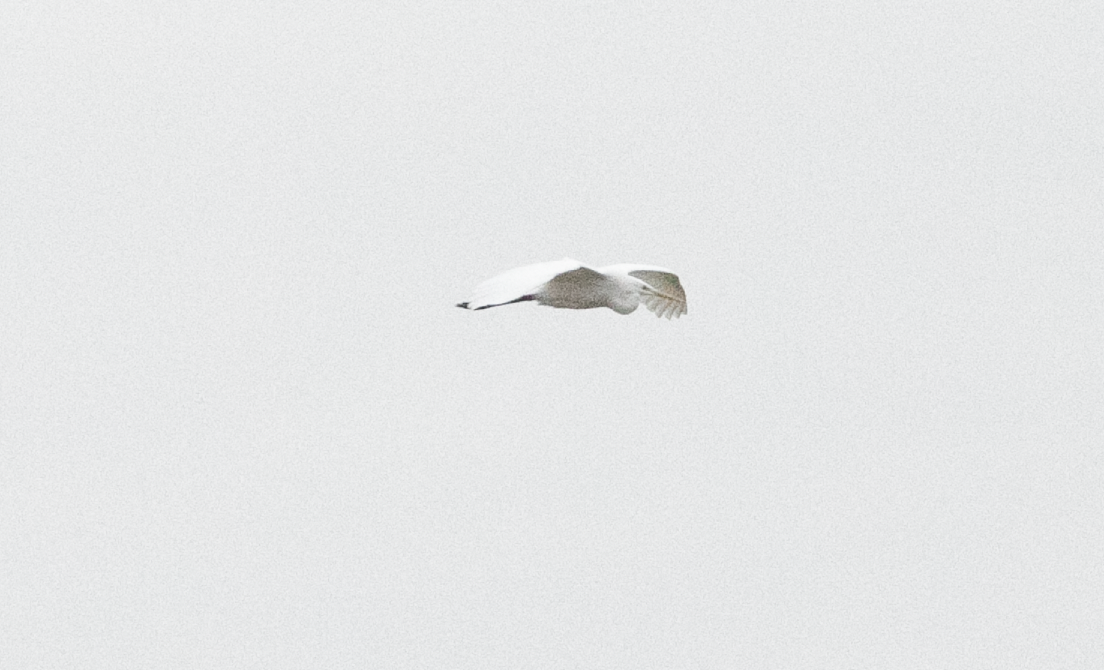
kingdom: Animalia
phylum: Chordata
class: Aves
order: Pelecaniformes
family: Ardeidae
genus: Ardea
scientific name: Ardea alba
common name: Great egret
